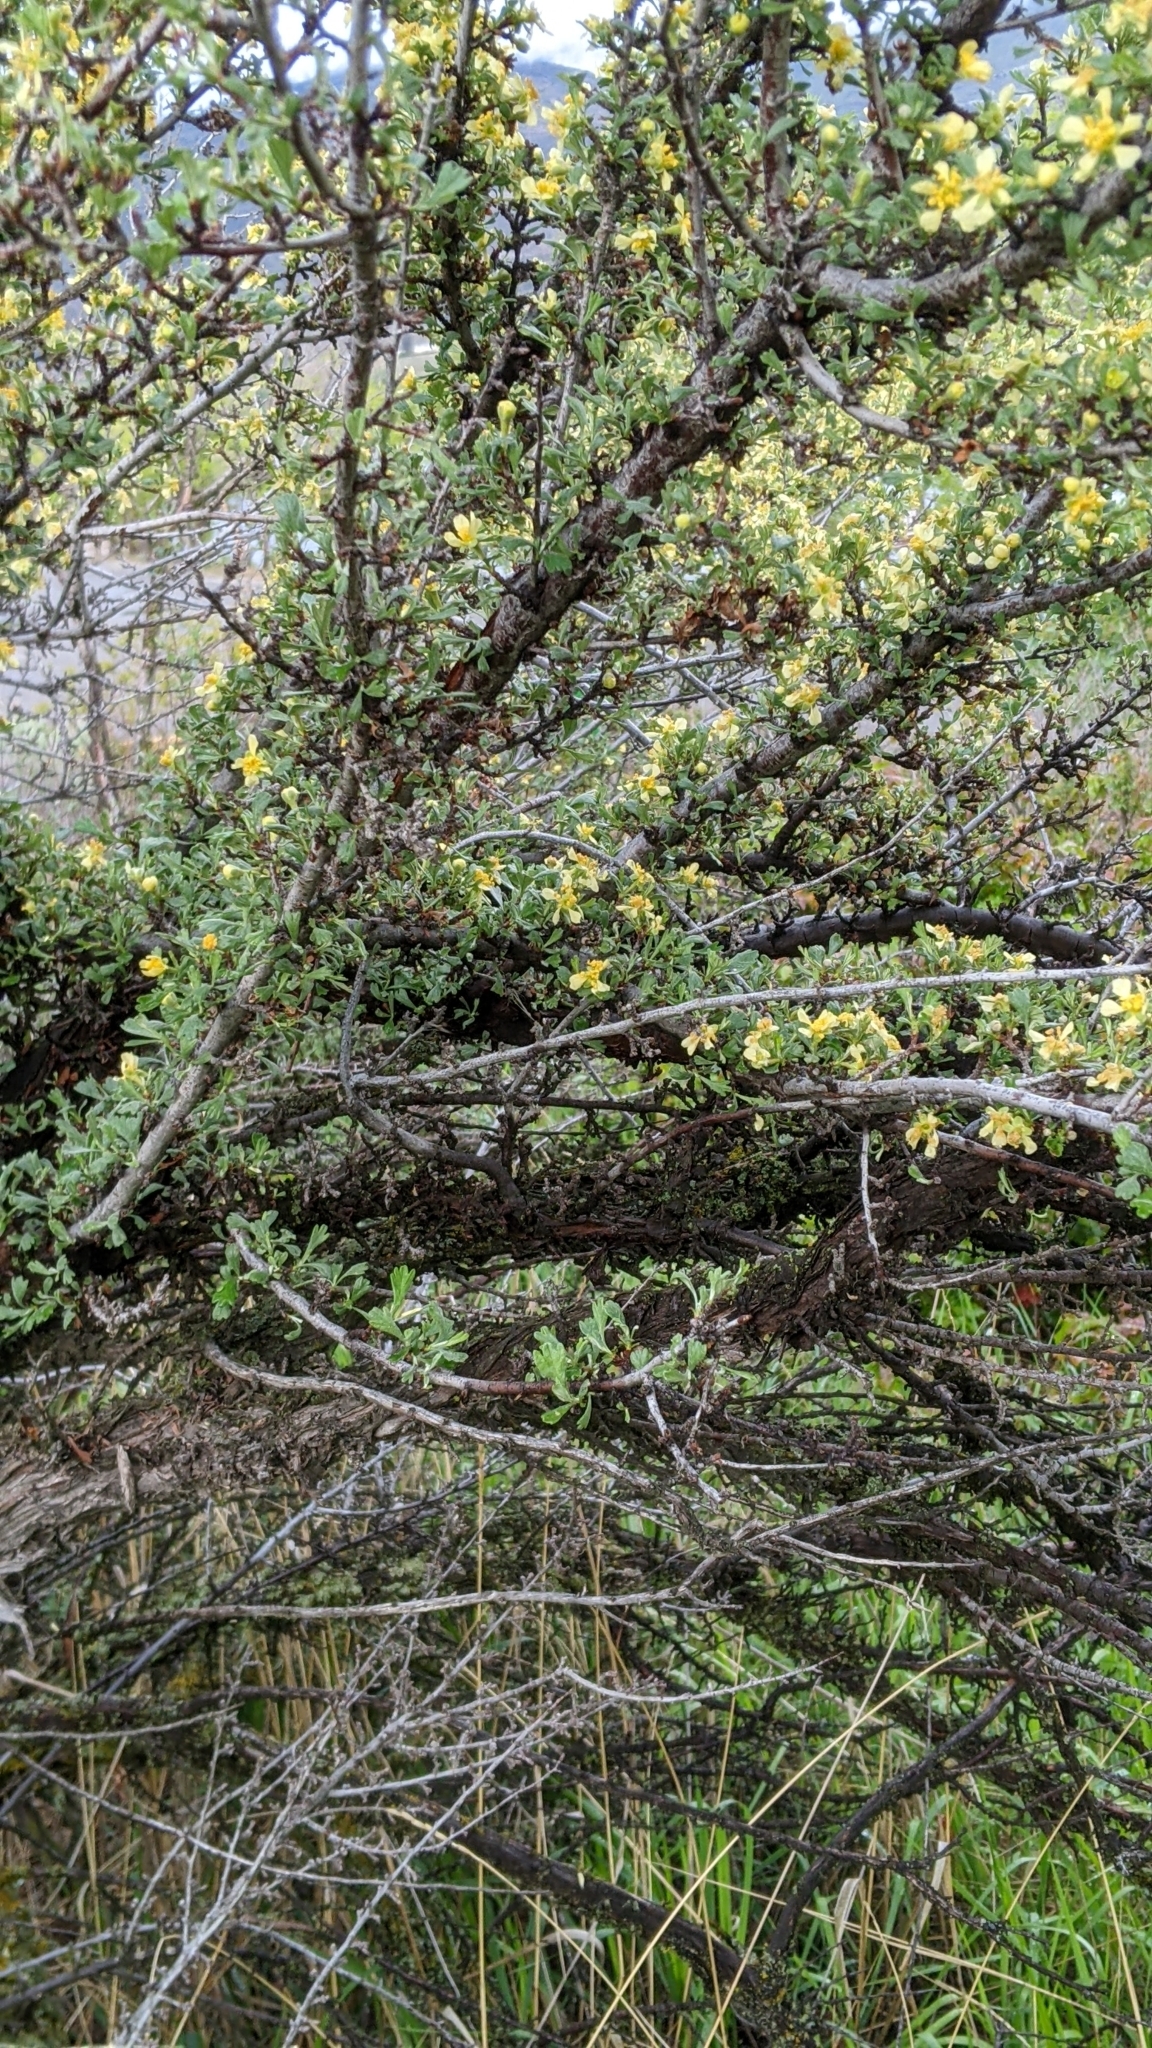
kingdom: Plantae
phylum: Tracheophyta
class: Magnoliopsida
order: Rosales
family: Rosaceae
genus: Purshia
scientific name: Purshia tridentata
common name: Antelope bitterbrush
